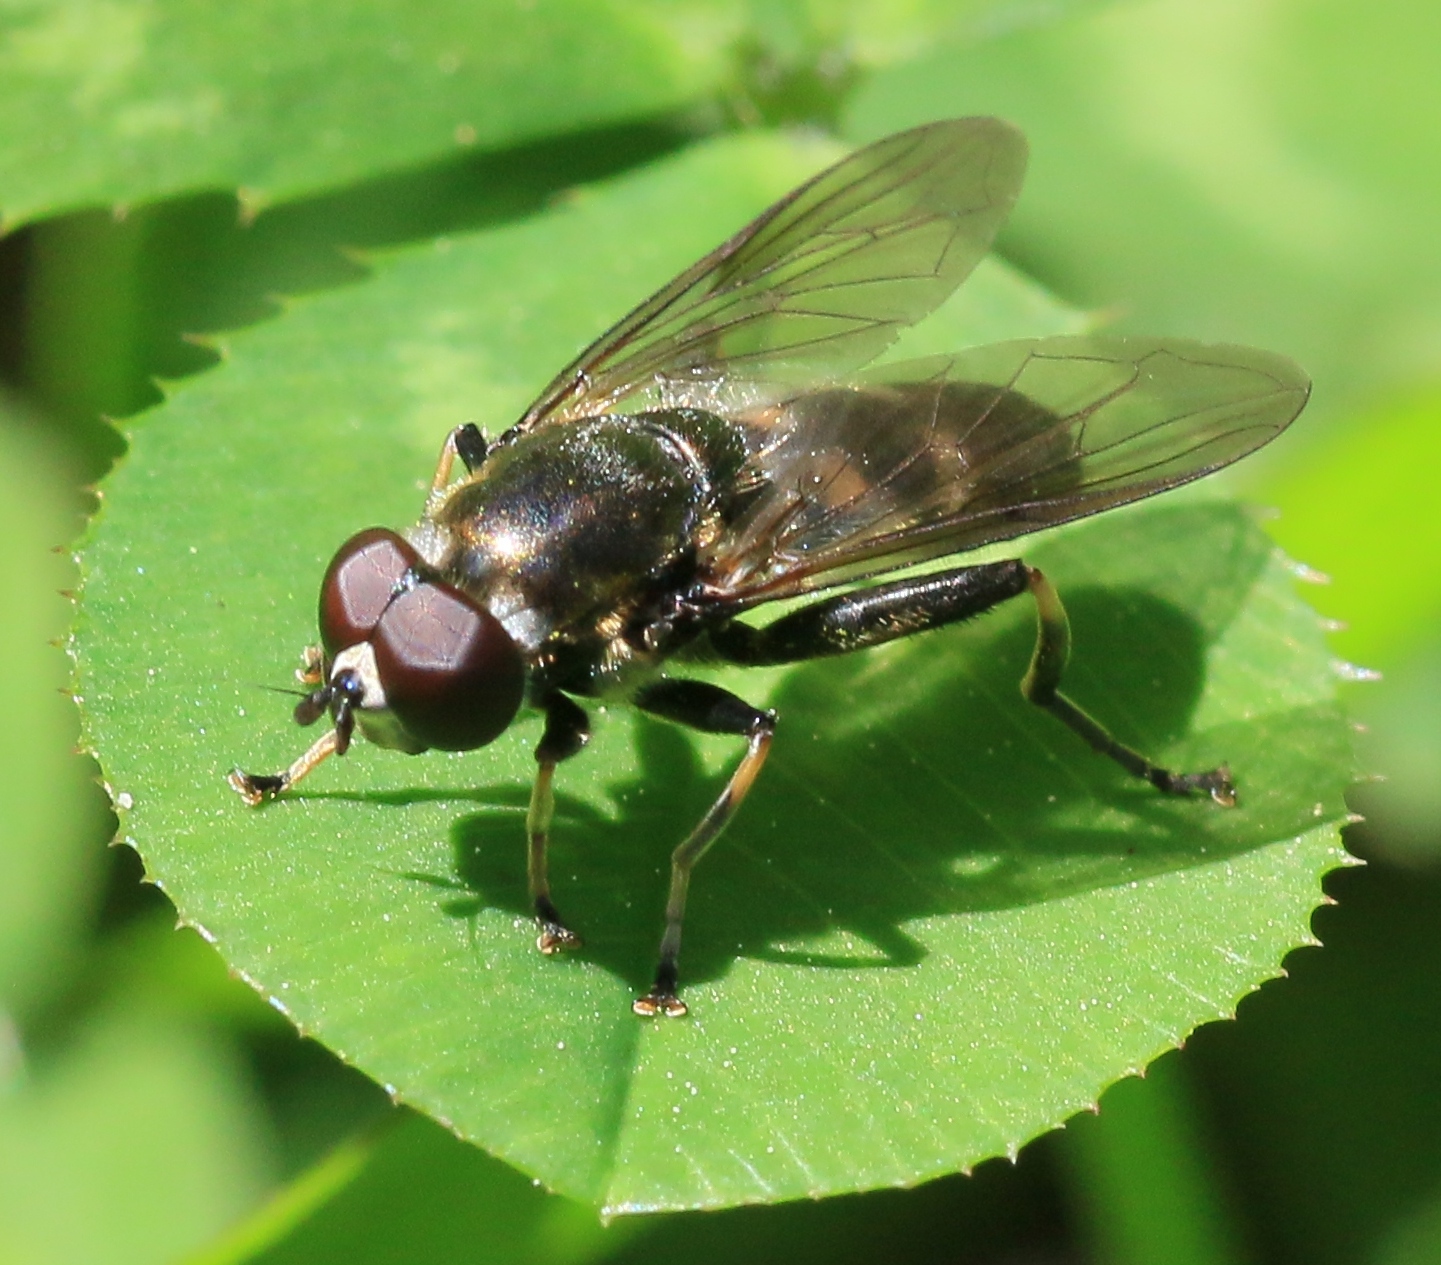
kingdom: Animalia
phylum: Arthropoda
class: Insecta
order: Diptera
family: Syrphidae
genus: Xylota
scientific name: Xylota jakutorum
